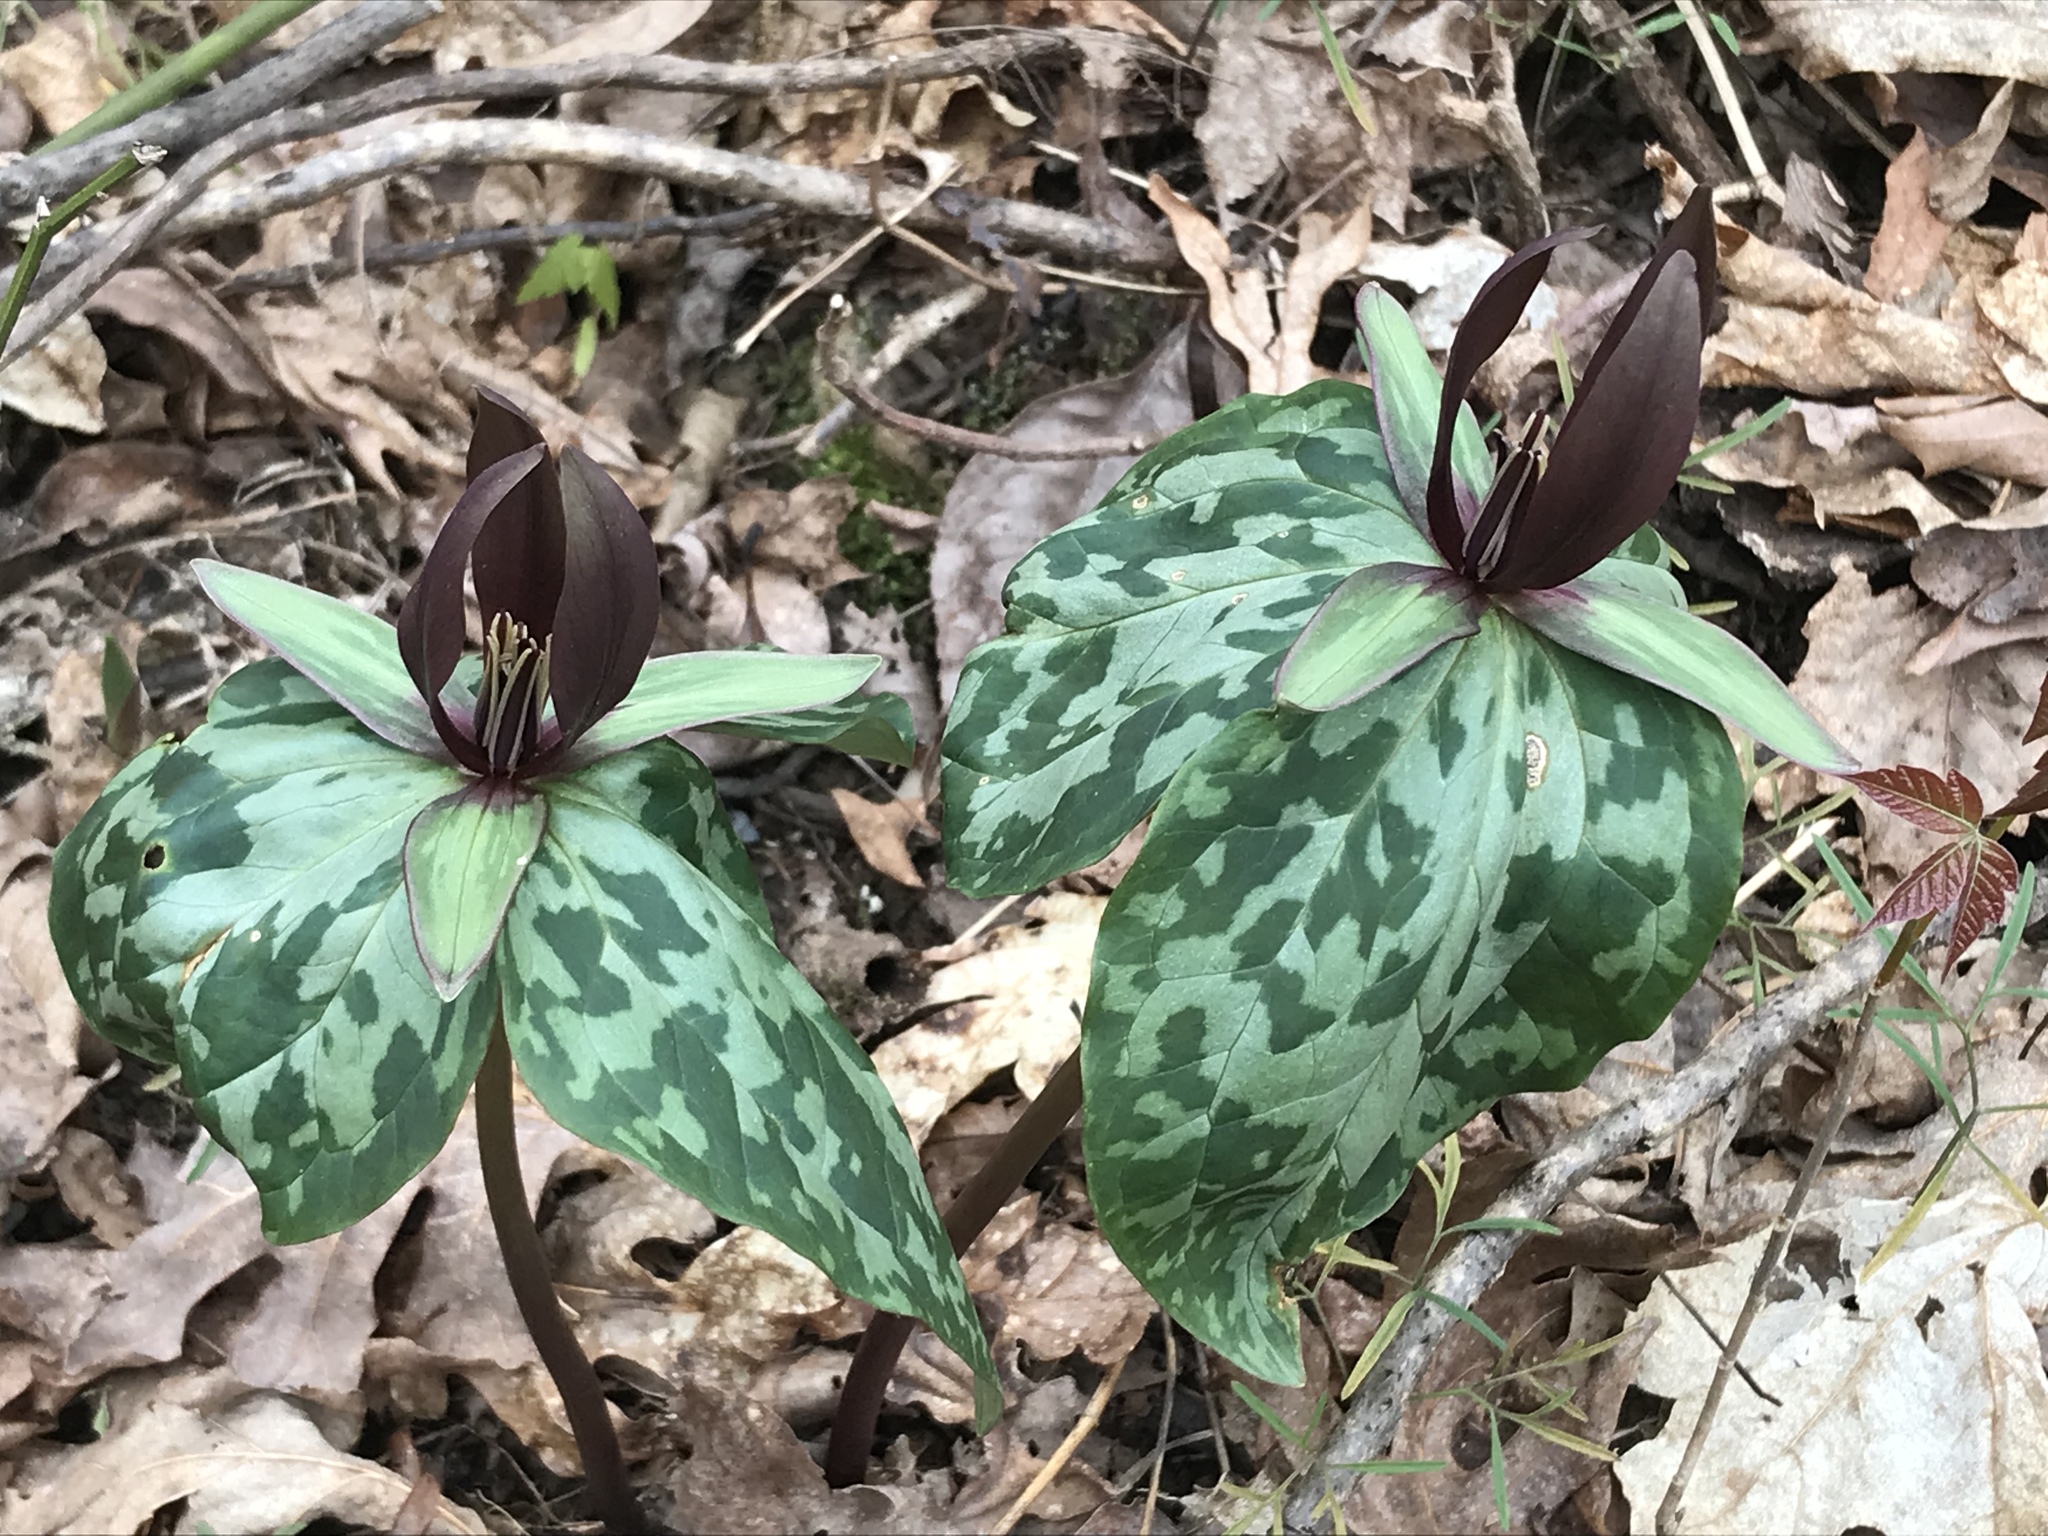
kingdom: Plantae
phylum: Tracheophyta
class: Liliopsida
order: Liliales
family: Melanthiaceae
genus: Trillium
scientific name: Trillium cuneatum
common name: Cuneate trillium
